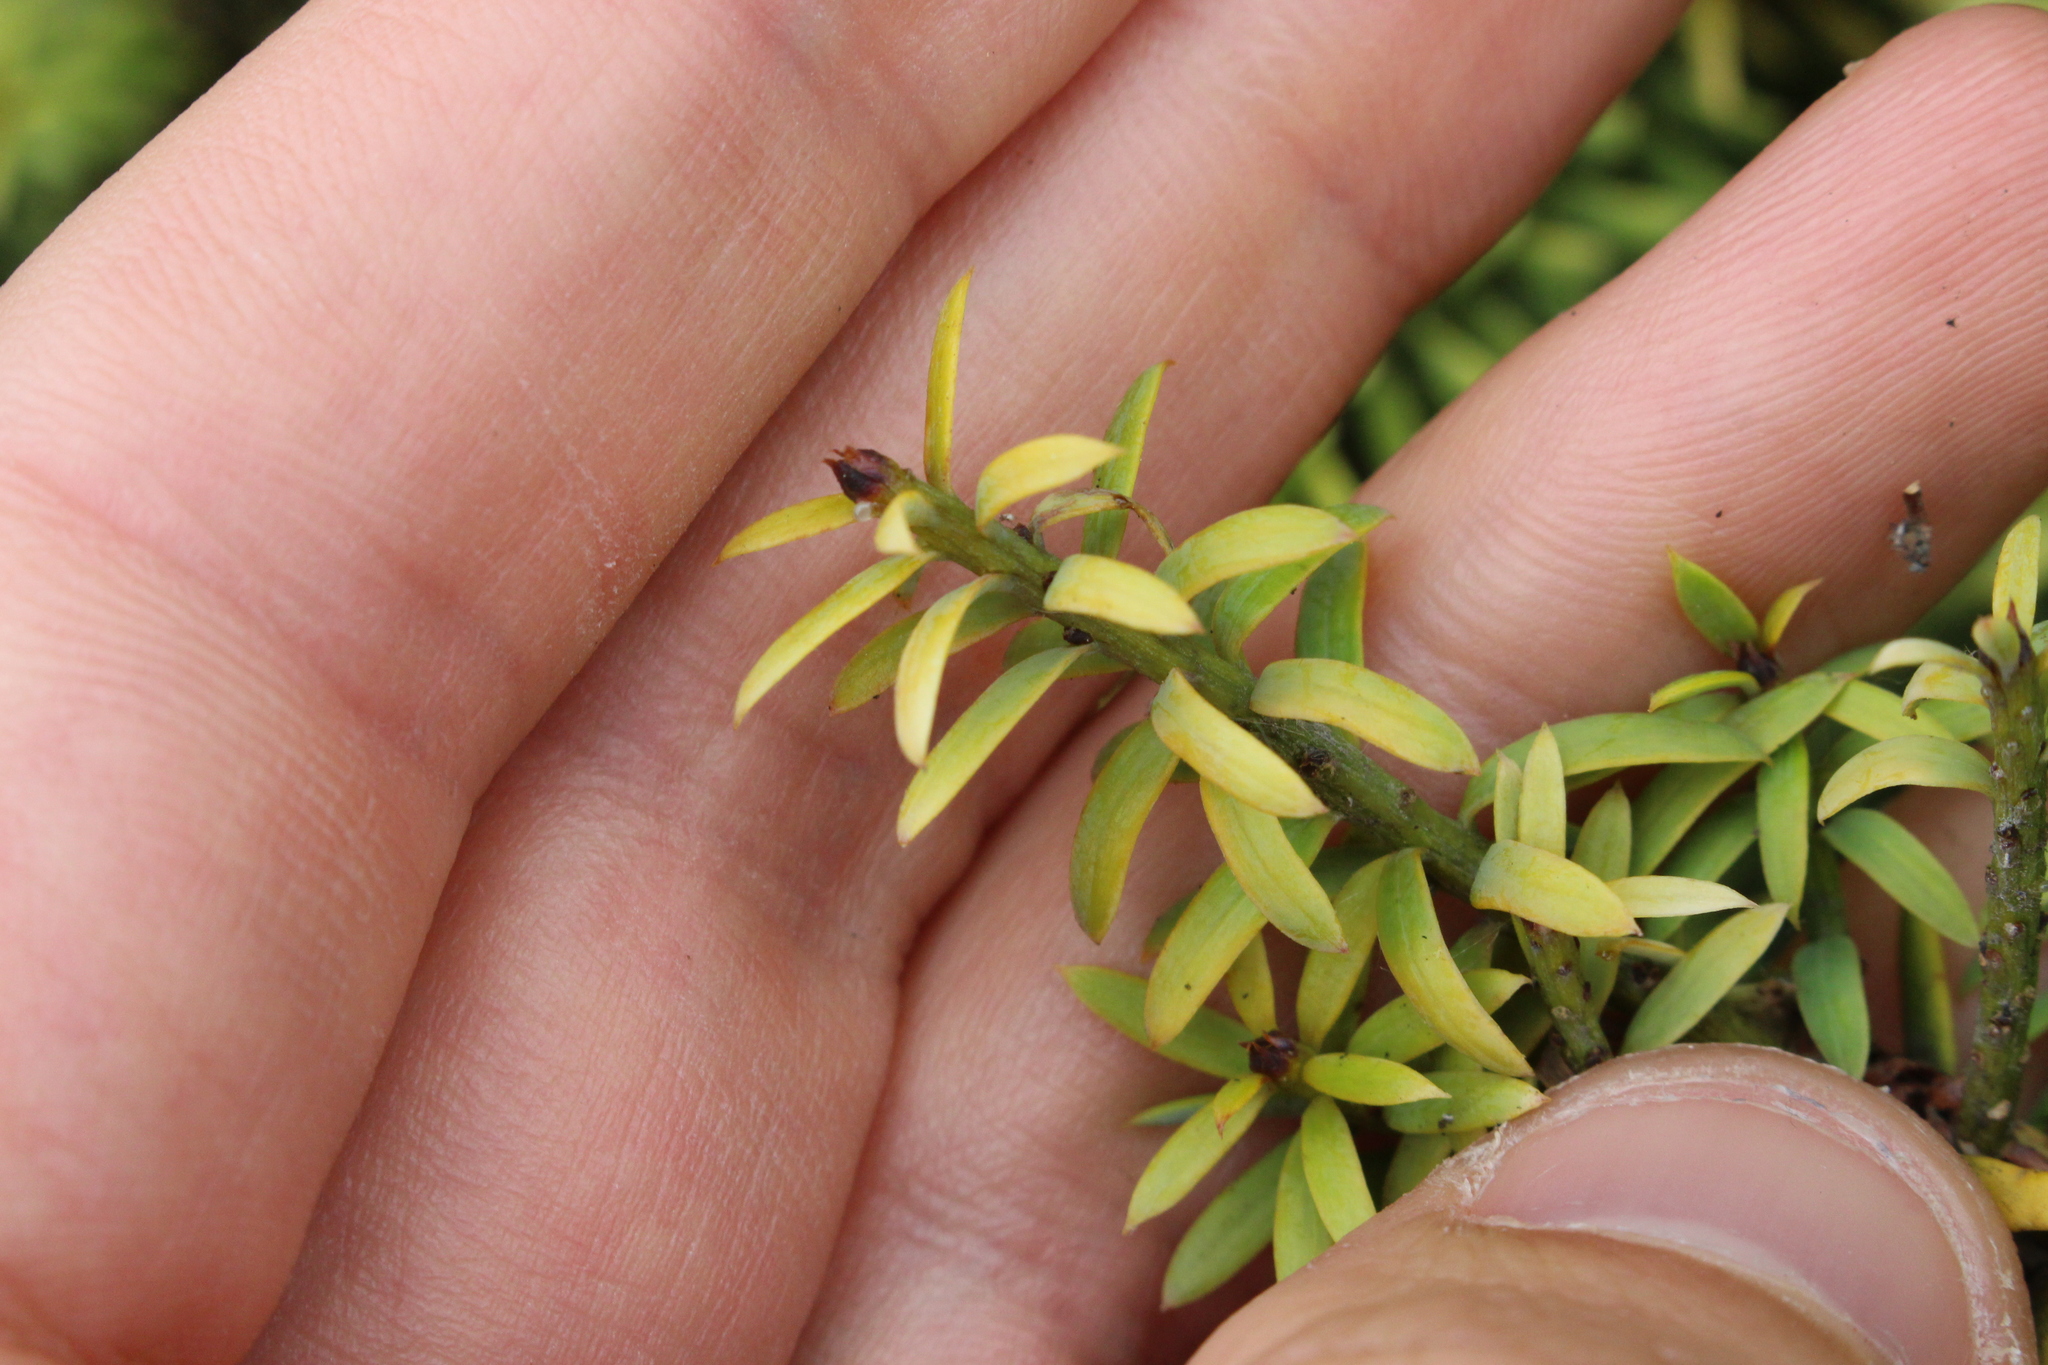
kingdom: Plantae
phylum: Tracheophyta
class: Pinopsida
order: Pinales
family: Podocarpaceae
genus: Podocarpus
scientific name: Podocarpus totara
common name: Totara
